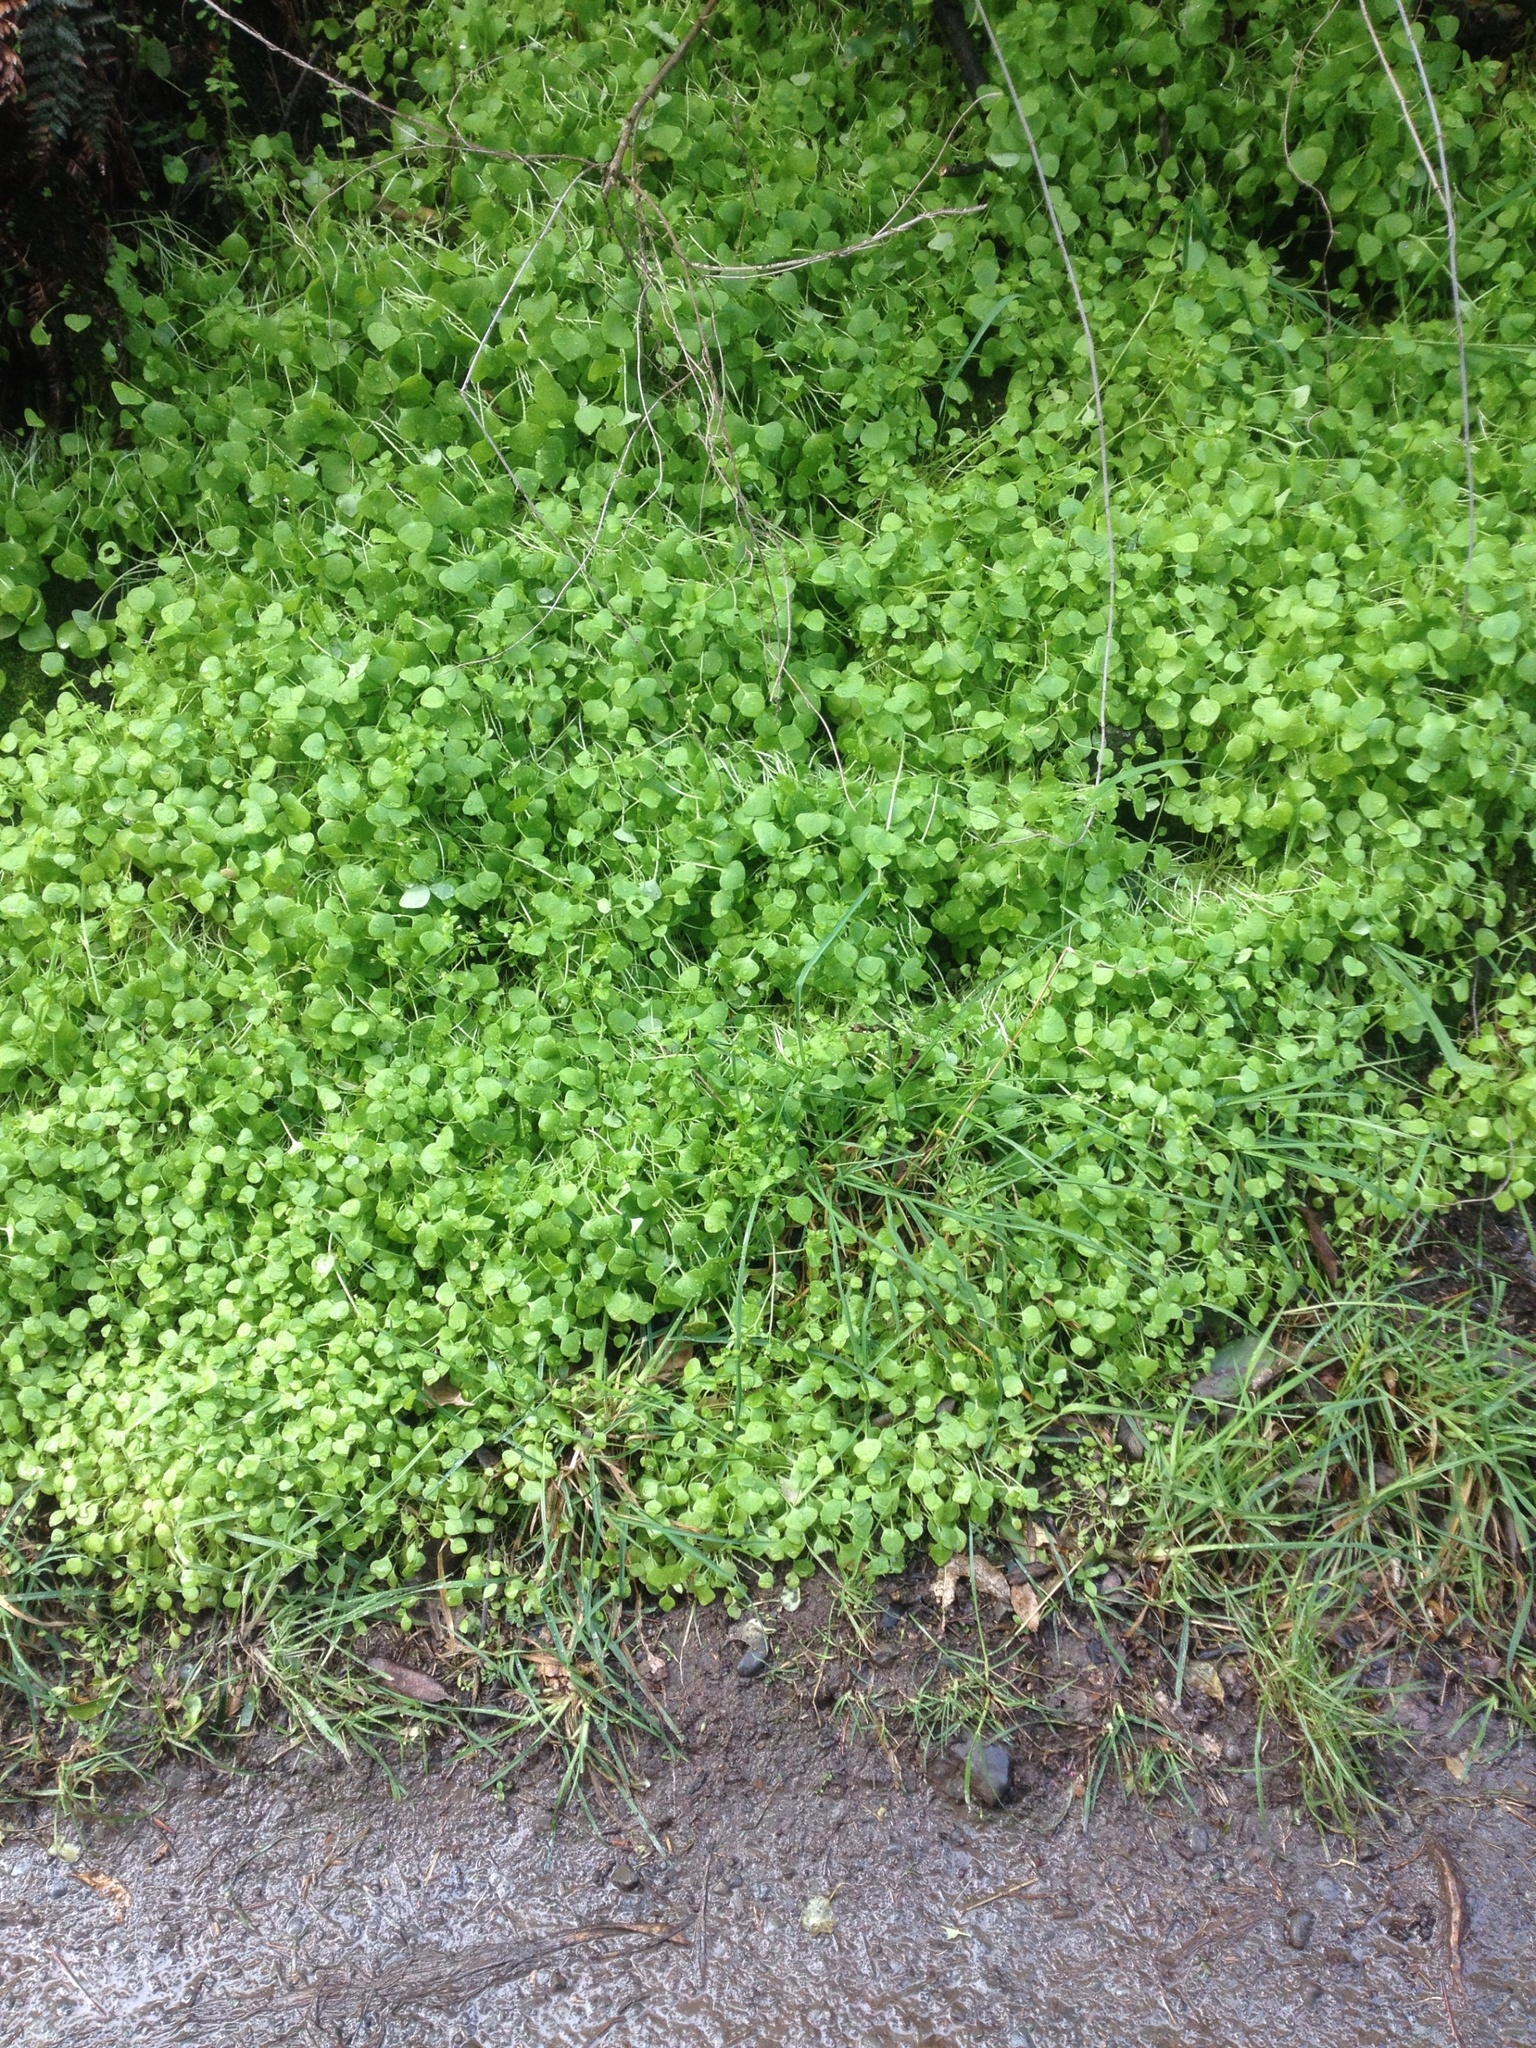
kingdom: Plantae
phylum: Tracheophyta
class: Magnoliopsida
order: Caryophyllales
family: Montiaceae
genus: Claytonia
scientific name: Claytonia perfoliata
